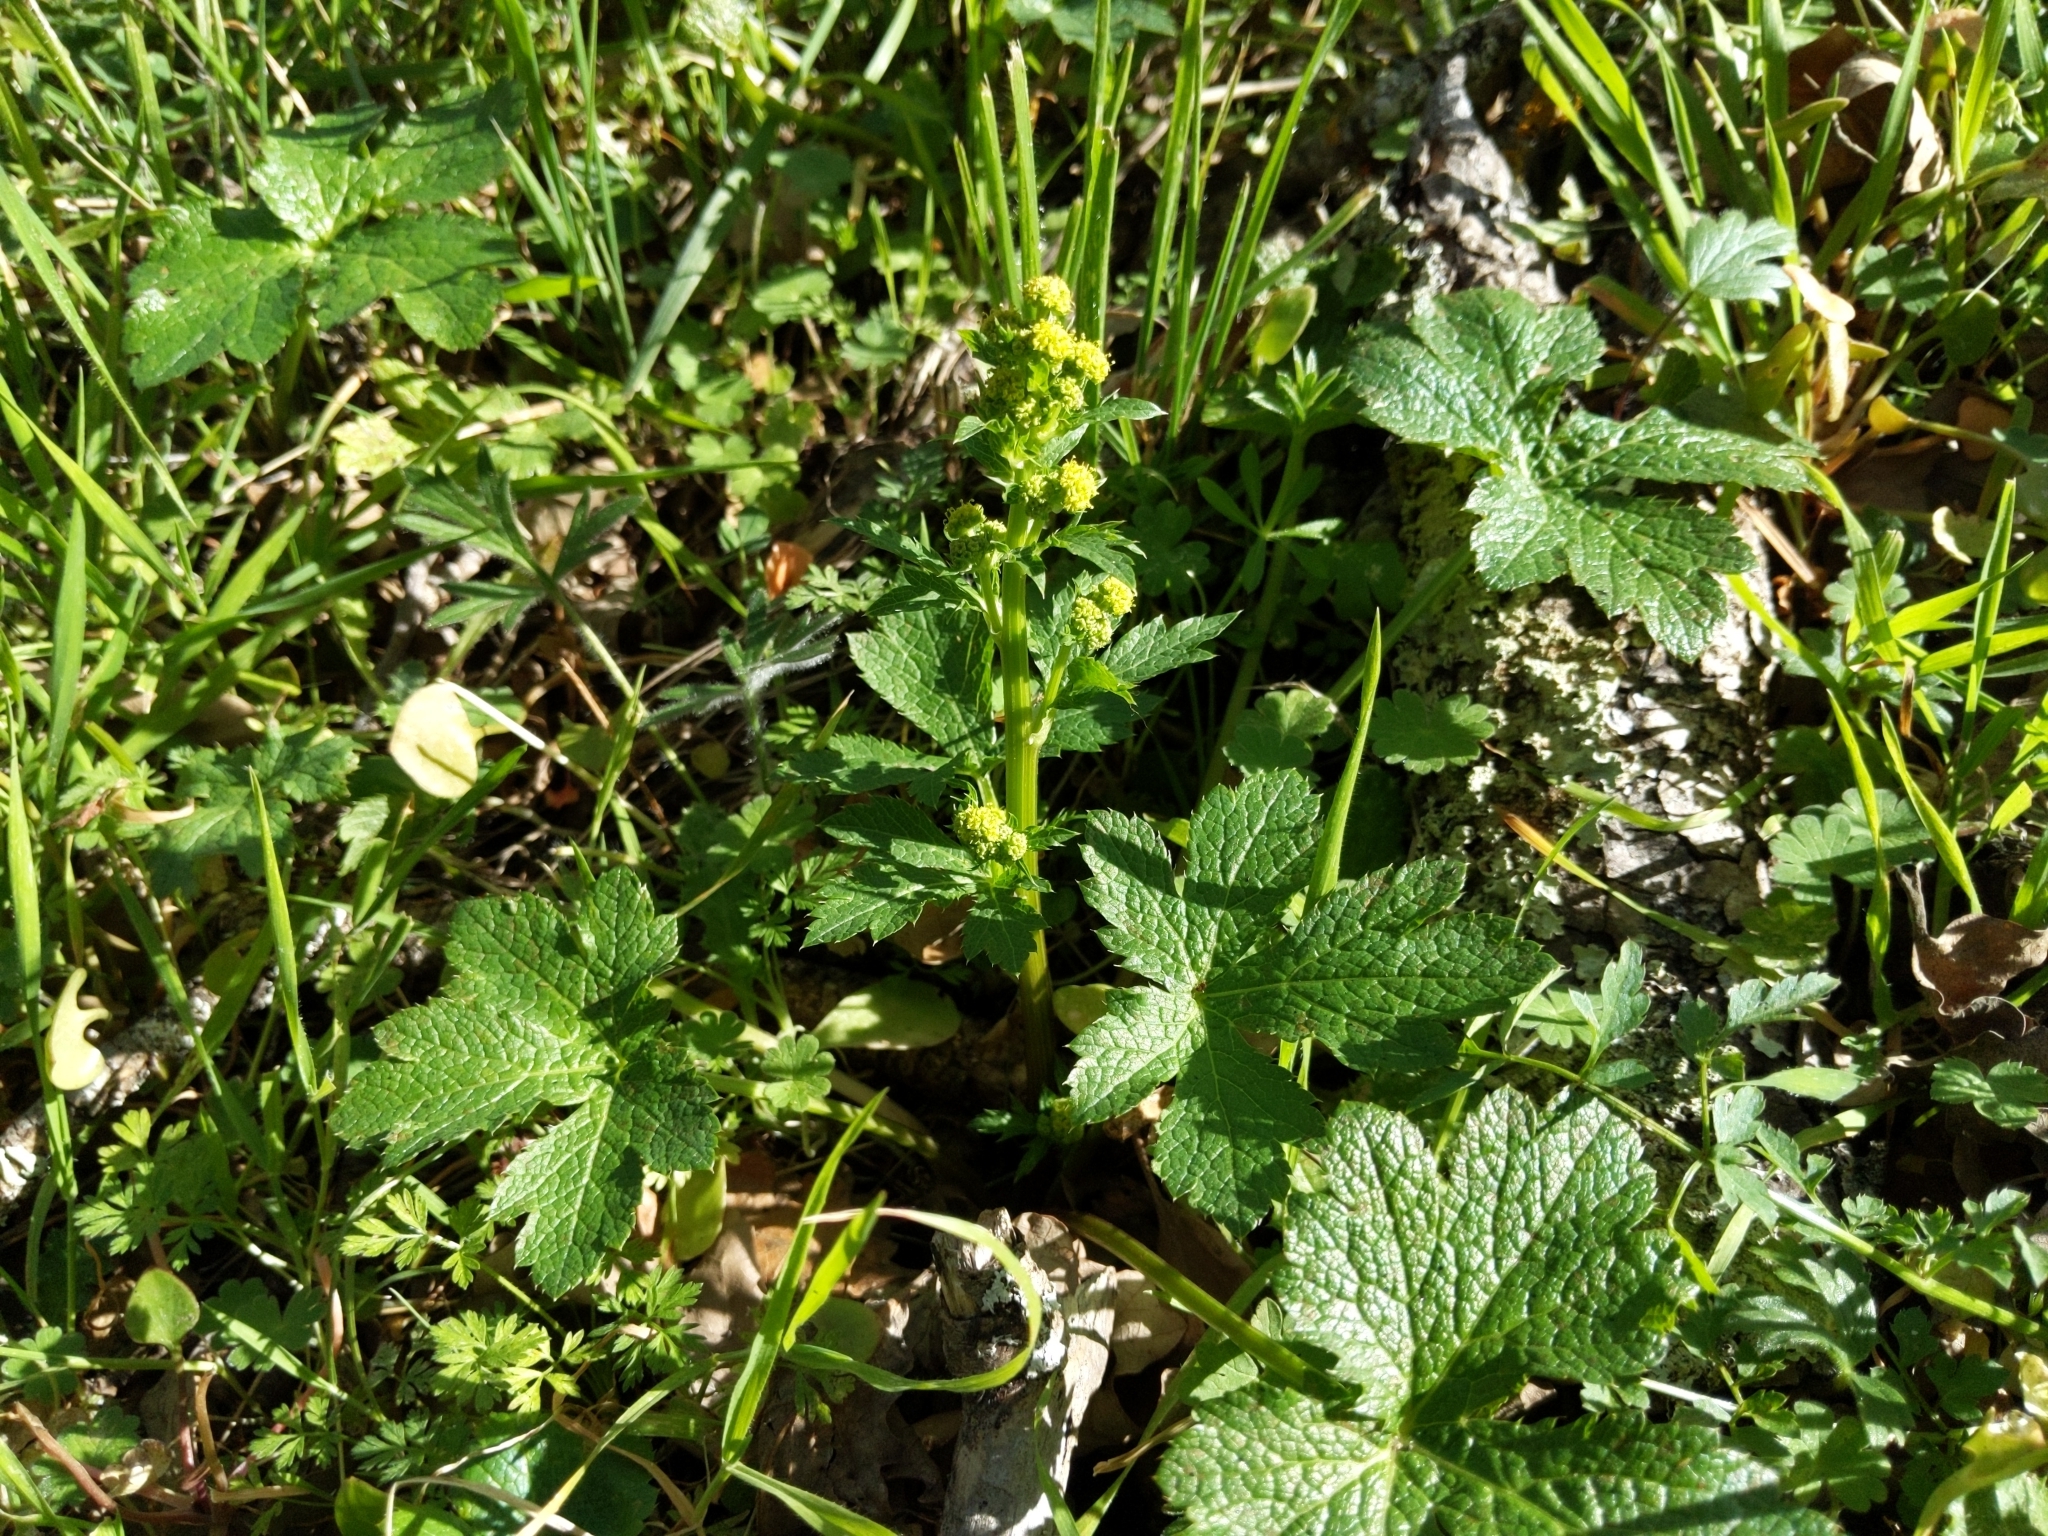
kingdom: Plantae
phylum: Tracheophyta
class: Magnoliopsida
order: Apiales
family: Apiaceae
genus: Sanicula
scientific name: Sanicula crassicaulis
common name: Western snakeroot
